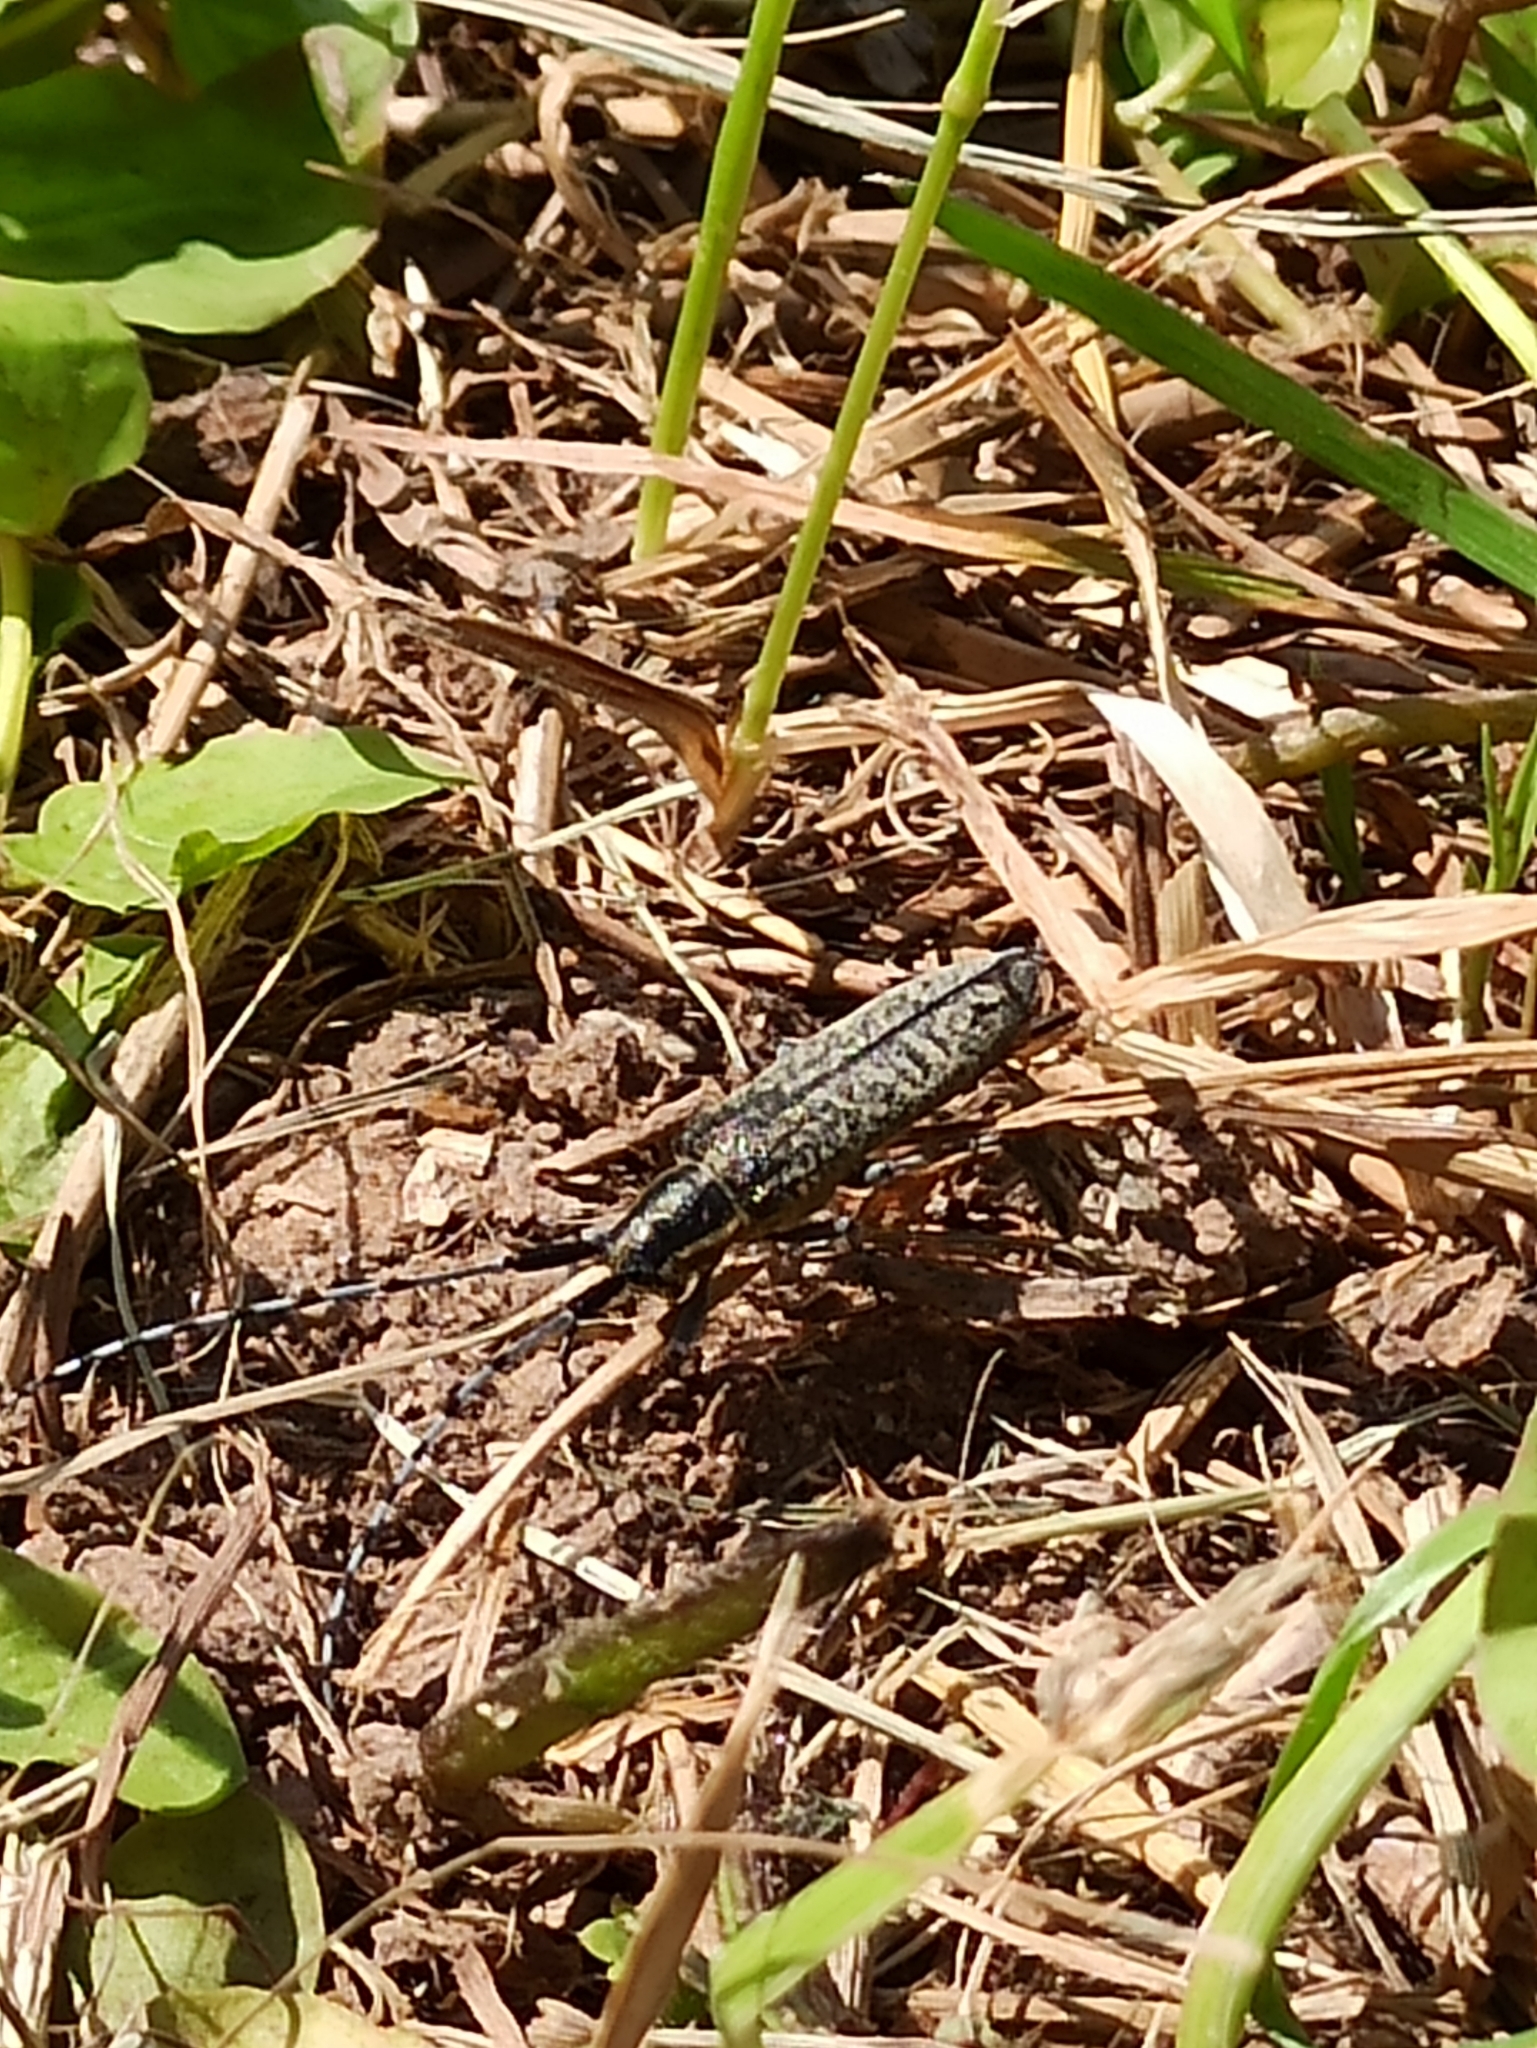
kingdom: Animalia
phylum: Arthropoda
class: Insecta
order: Coleoptera
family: Cerambycidae
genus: Agapanthia
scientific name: Agapanthia villosoviridescens
